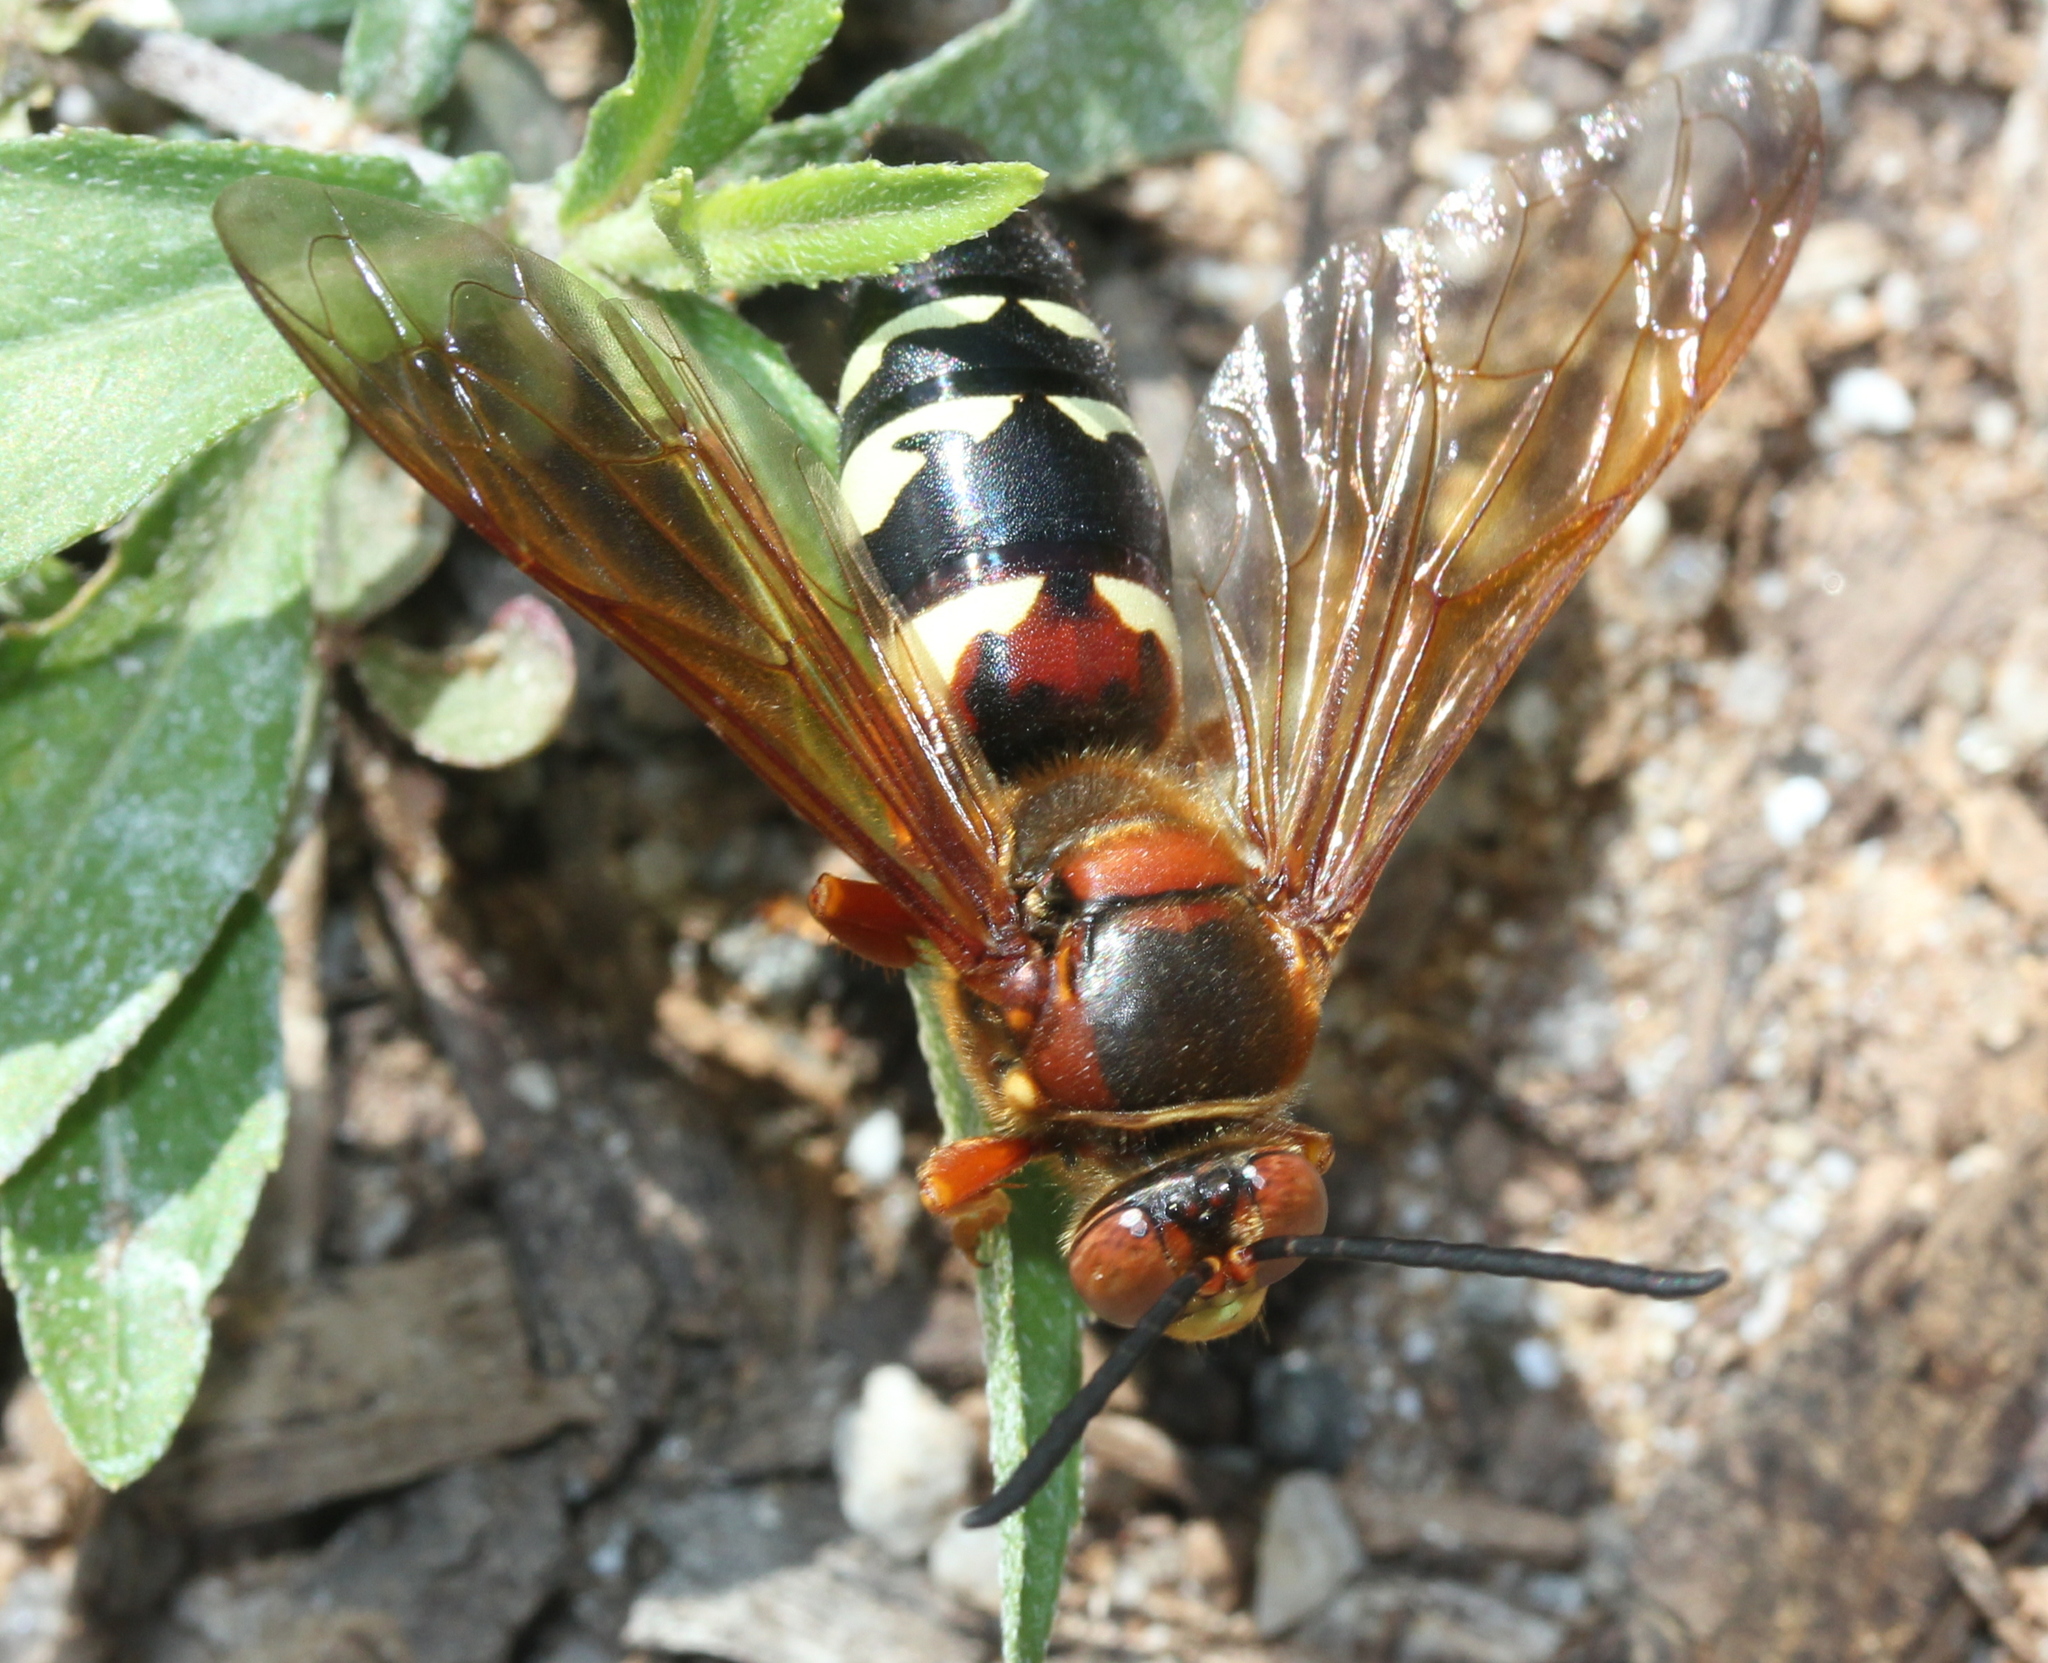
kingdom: Animalia
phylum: Arthropoda
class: Insecta
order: Hymenoptera
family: Crabronidae
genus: Sphecius
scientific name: Sphecius speciosus
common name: Cicada killer
